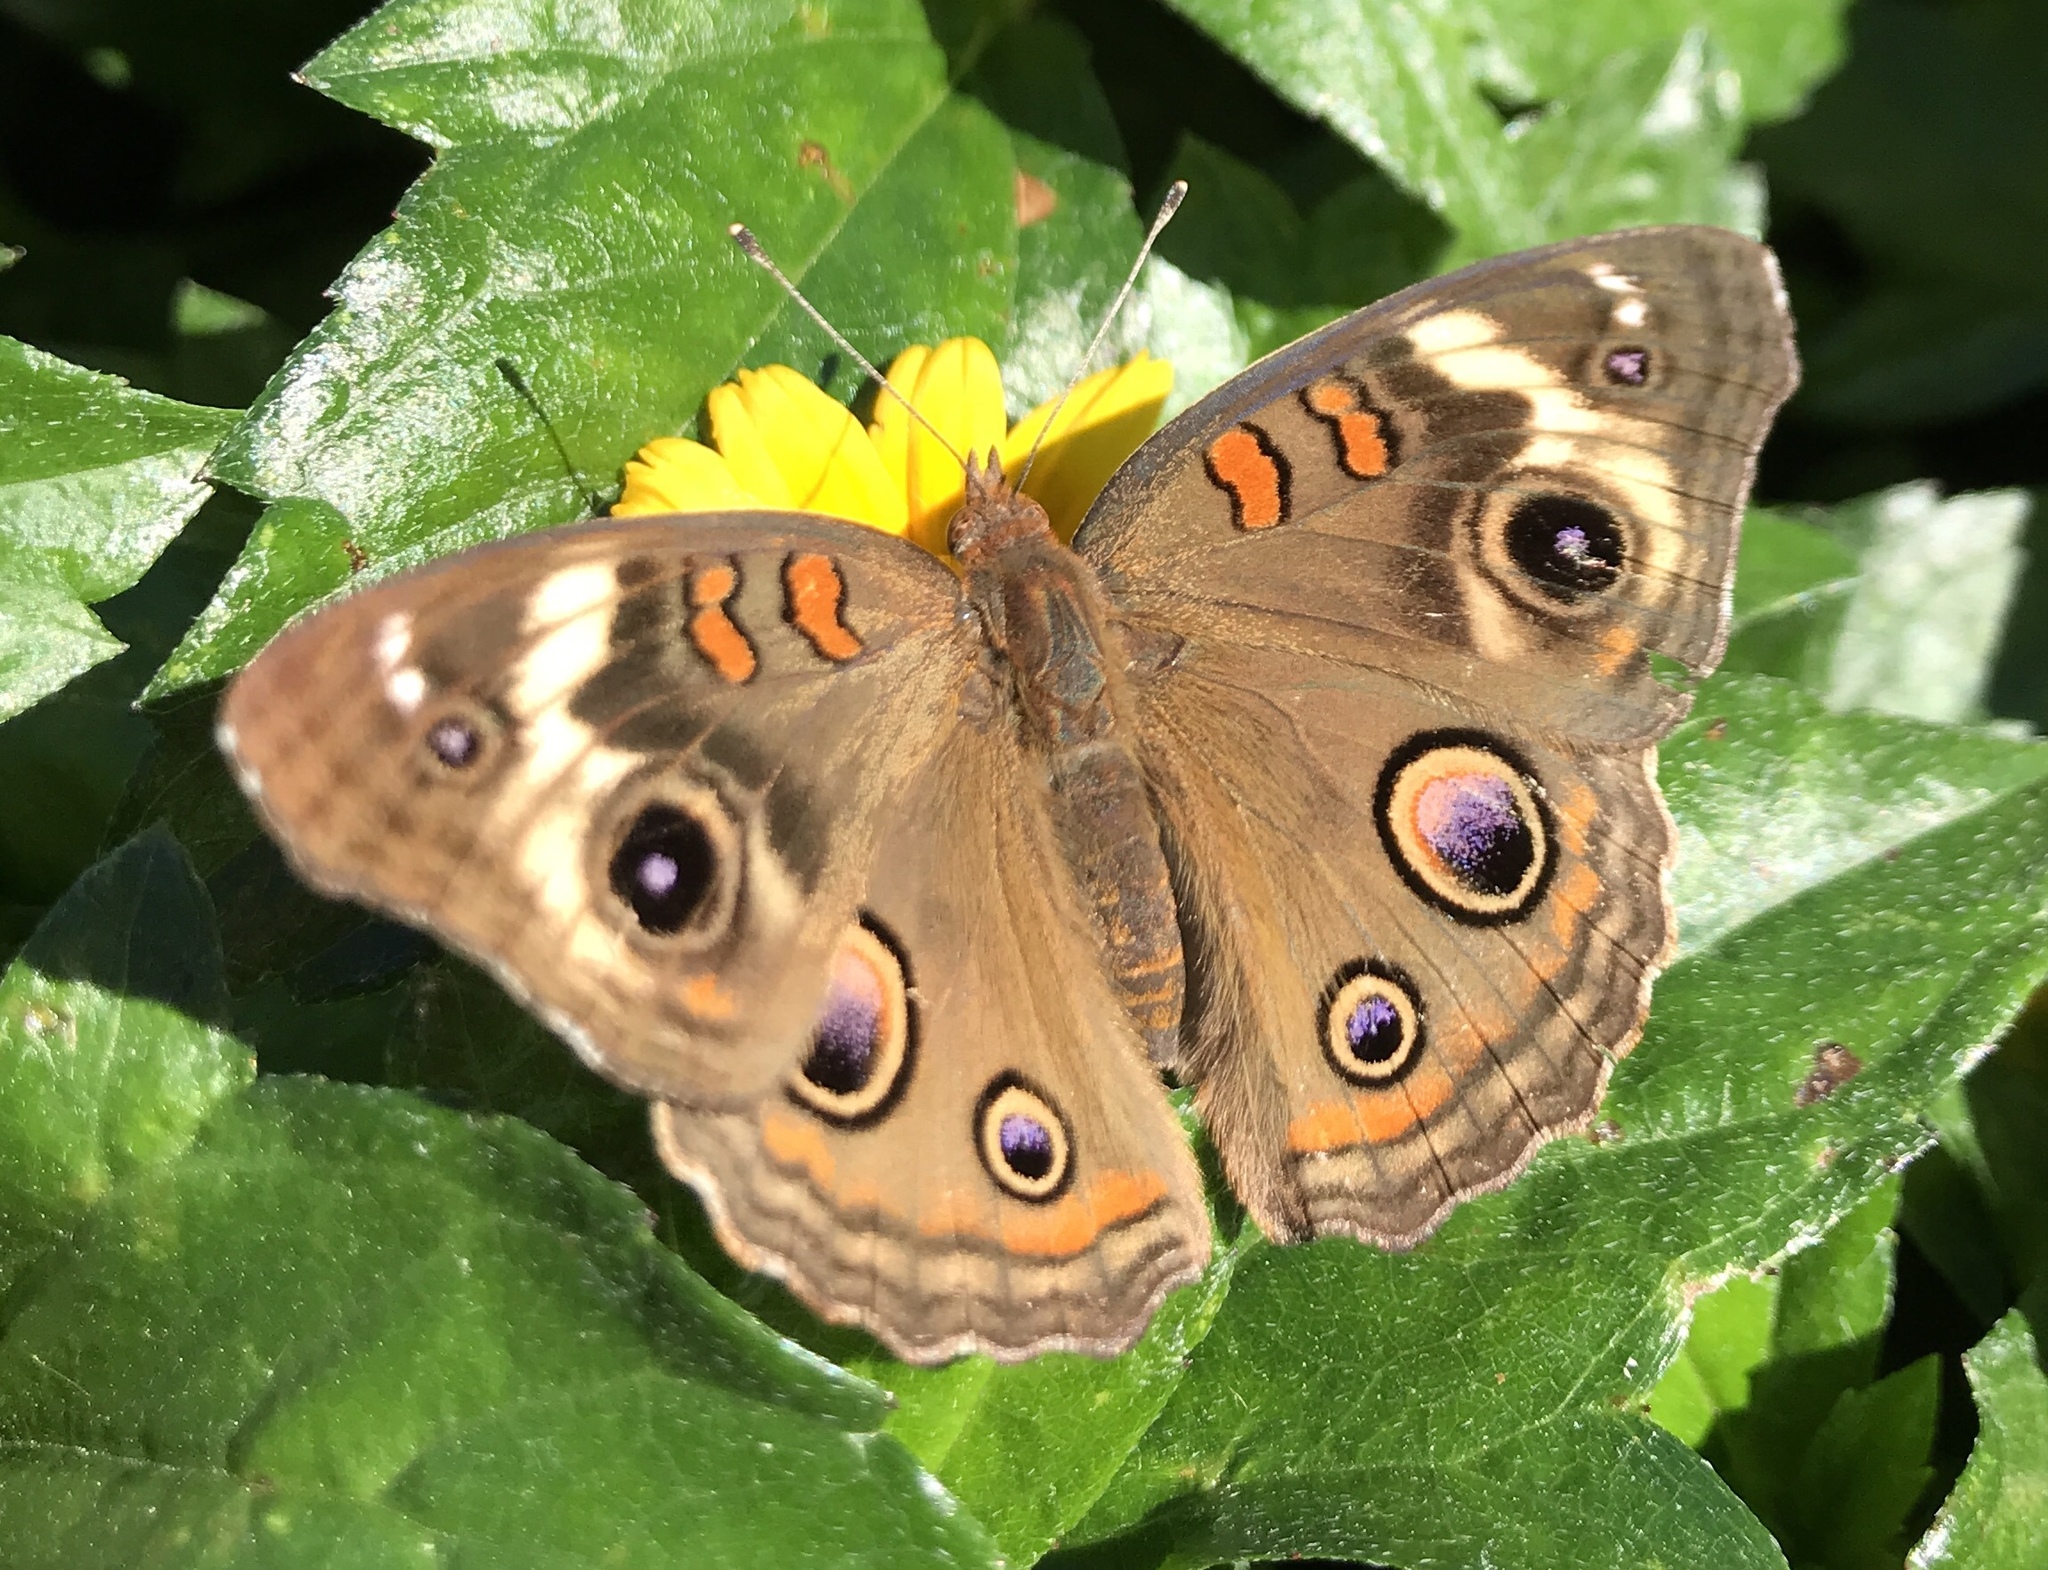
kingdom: Animalia
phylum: Arthropoda
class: Insecta
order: Lepidoptera
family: Nymphalidae
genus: Junonia
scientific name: Junonia coenia
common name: Common buckeye
